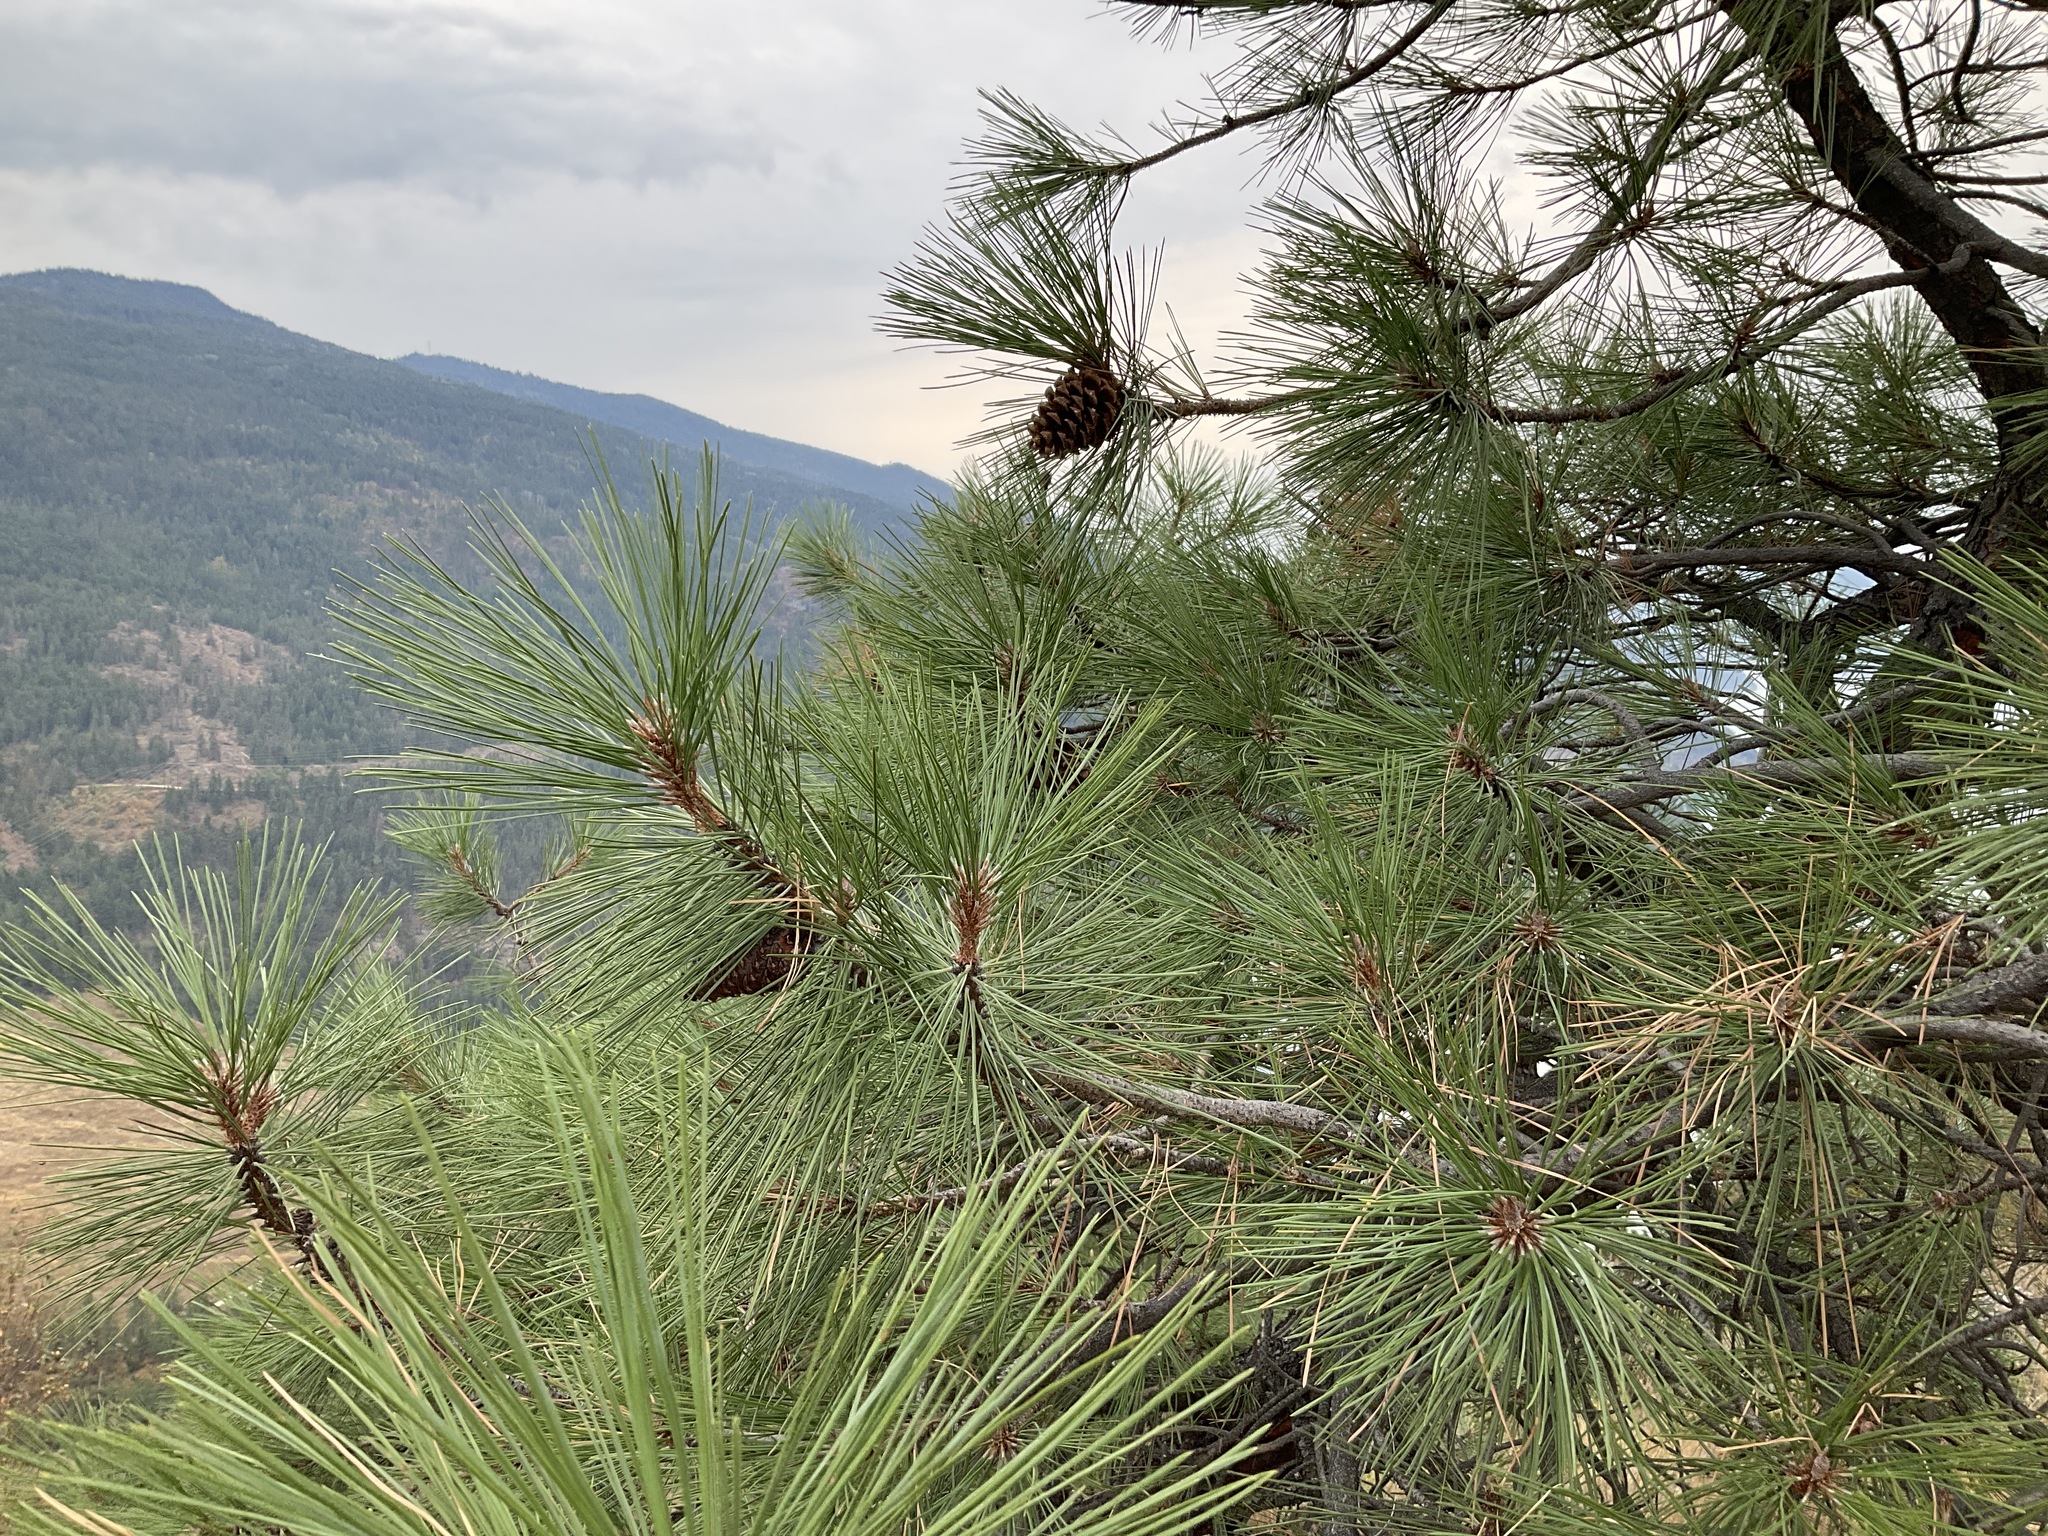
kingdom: Plantae
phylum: Tracheophyta
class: Pinopsida
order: Pinales
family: Pinaceae
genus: Pinus
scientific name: Pinus ponderosa
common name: Western yellow-pine
